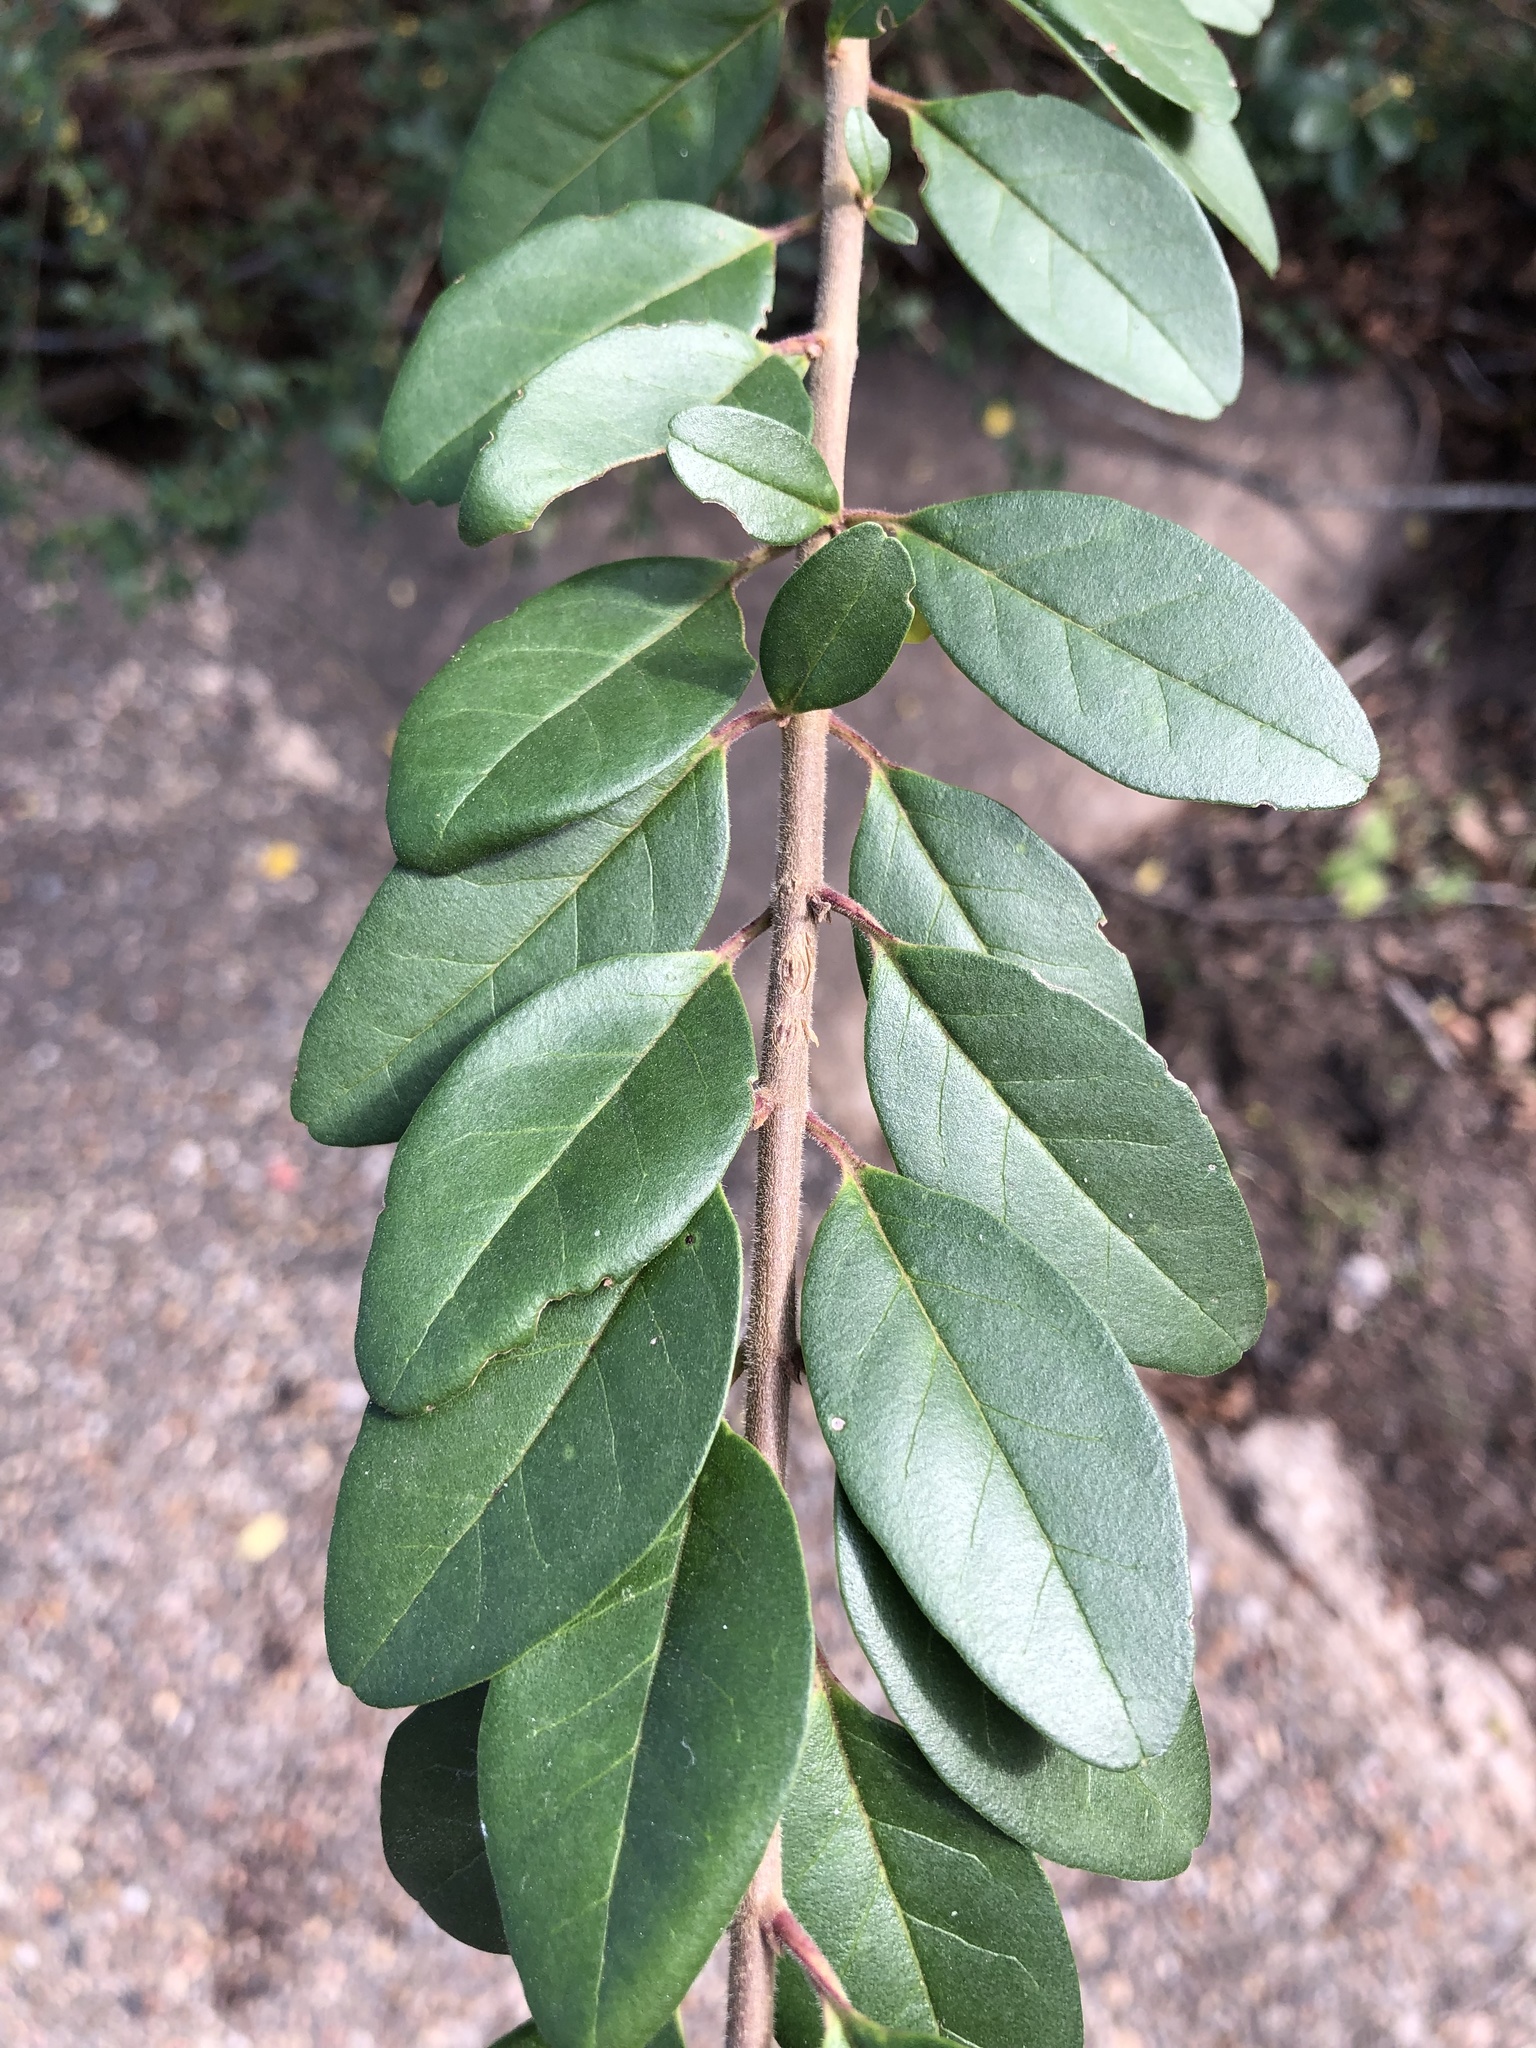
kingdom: Plantae
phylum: Tracheophyta
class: Magnoliopsida
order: Lamiales
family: Oleaceae
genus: Ligustrum
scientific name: Ligustrum sinense
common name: Chinese privet
